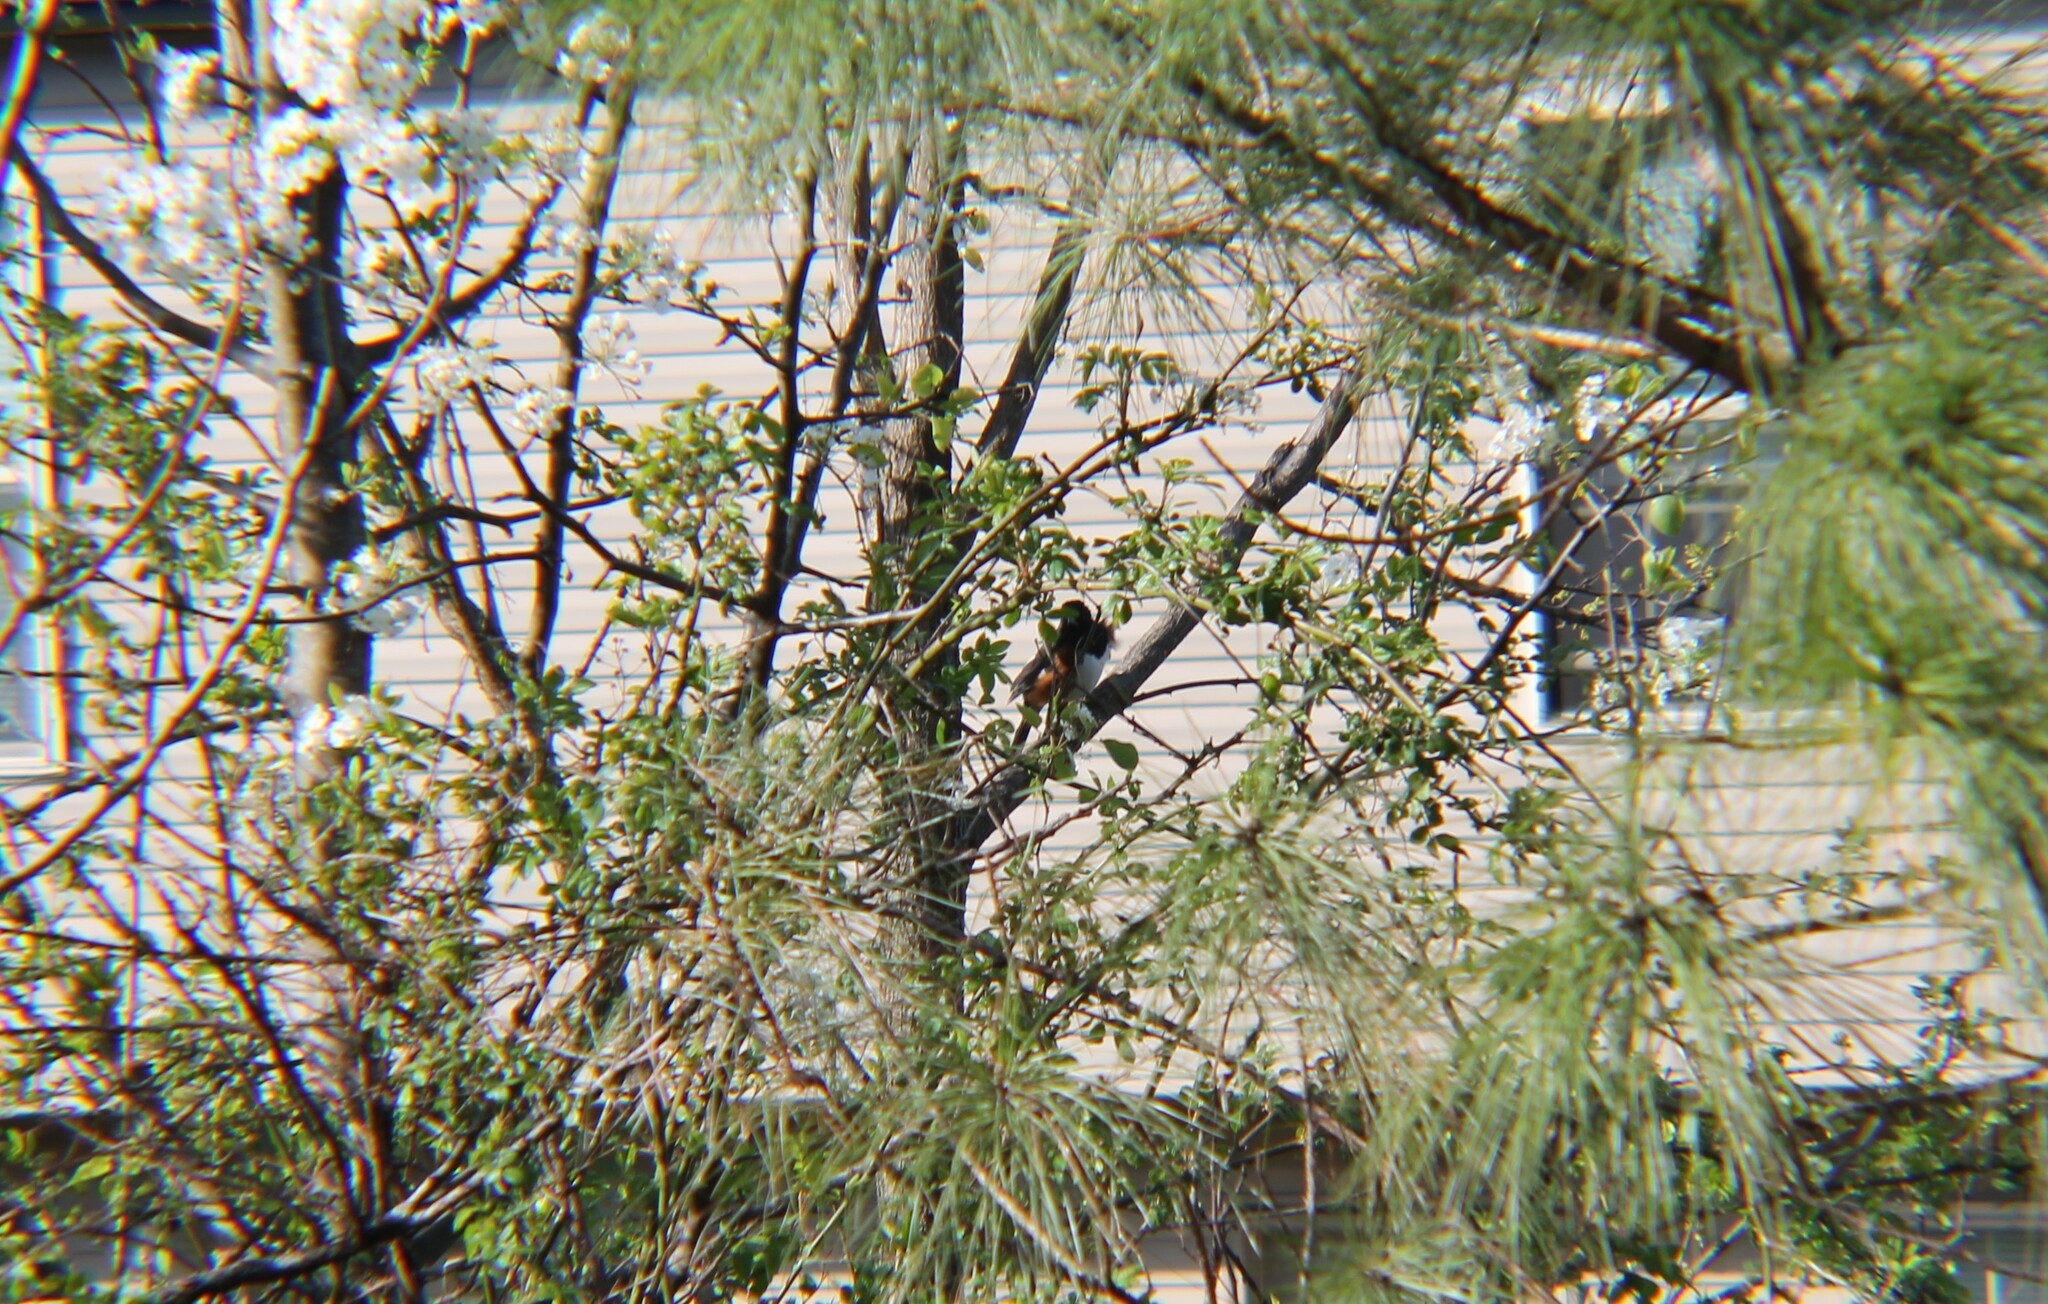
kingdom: Animalia
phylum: Chordata
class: Aves
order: Passeriformes
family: Passerellidae
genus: Pipilo
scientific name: Pipilo erythrophthalmus
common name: Eastern towhee
